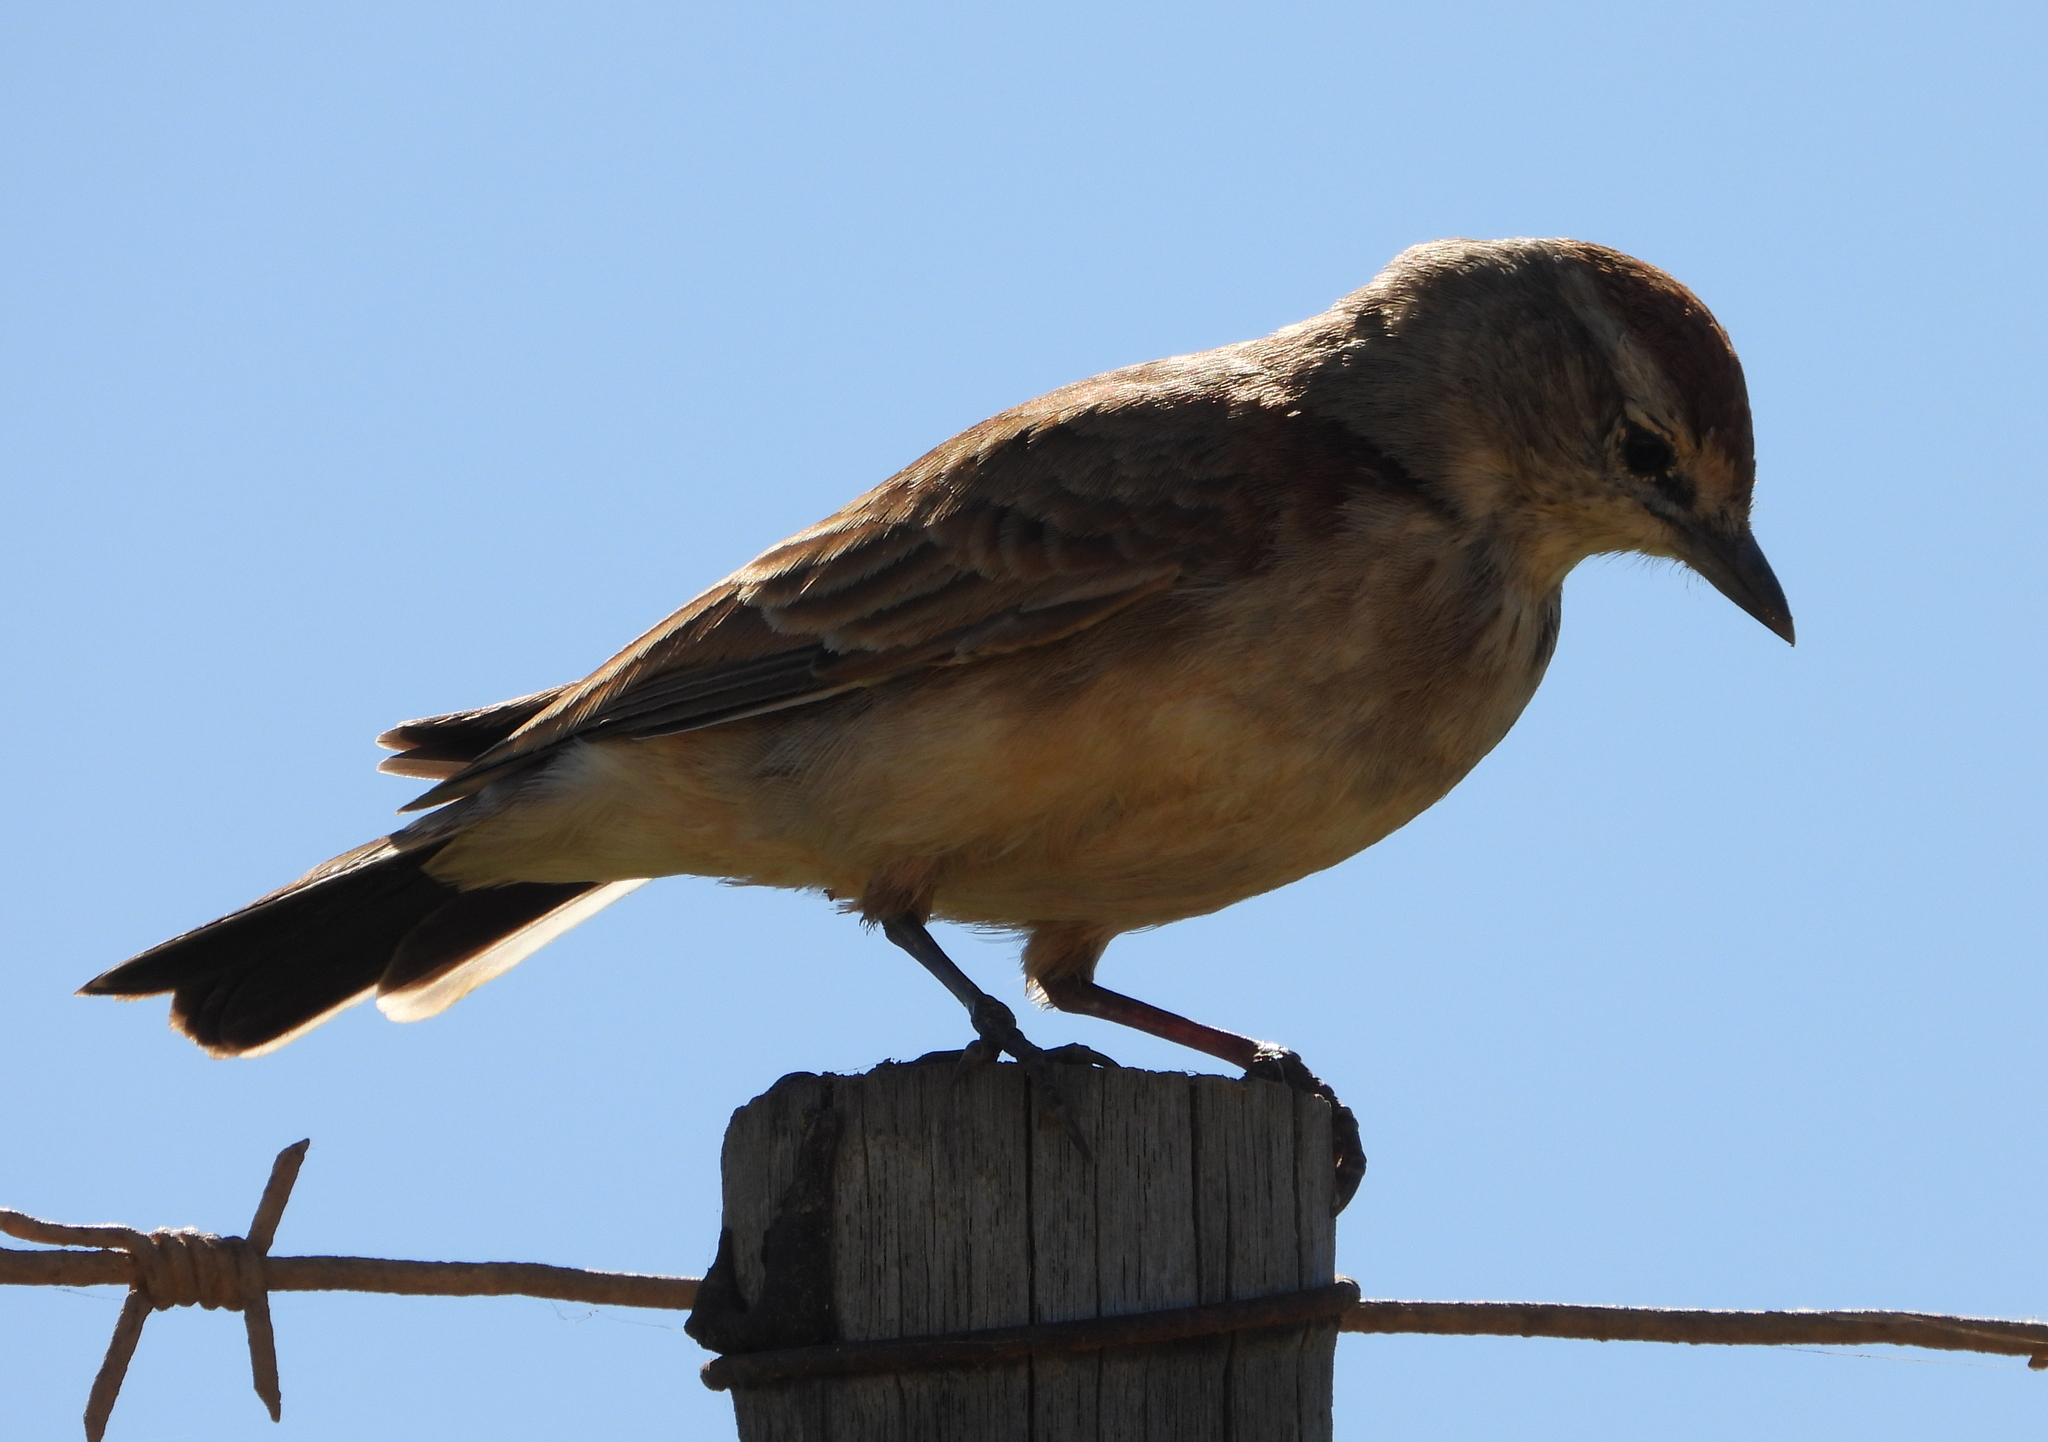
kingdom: Animalia
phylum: Chordata
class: Aves
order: Passeriformes
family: Alaudidae
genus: Calandrella
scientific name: Calandrella cinerea
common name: Red-capped lark
